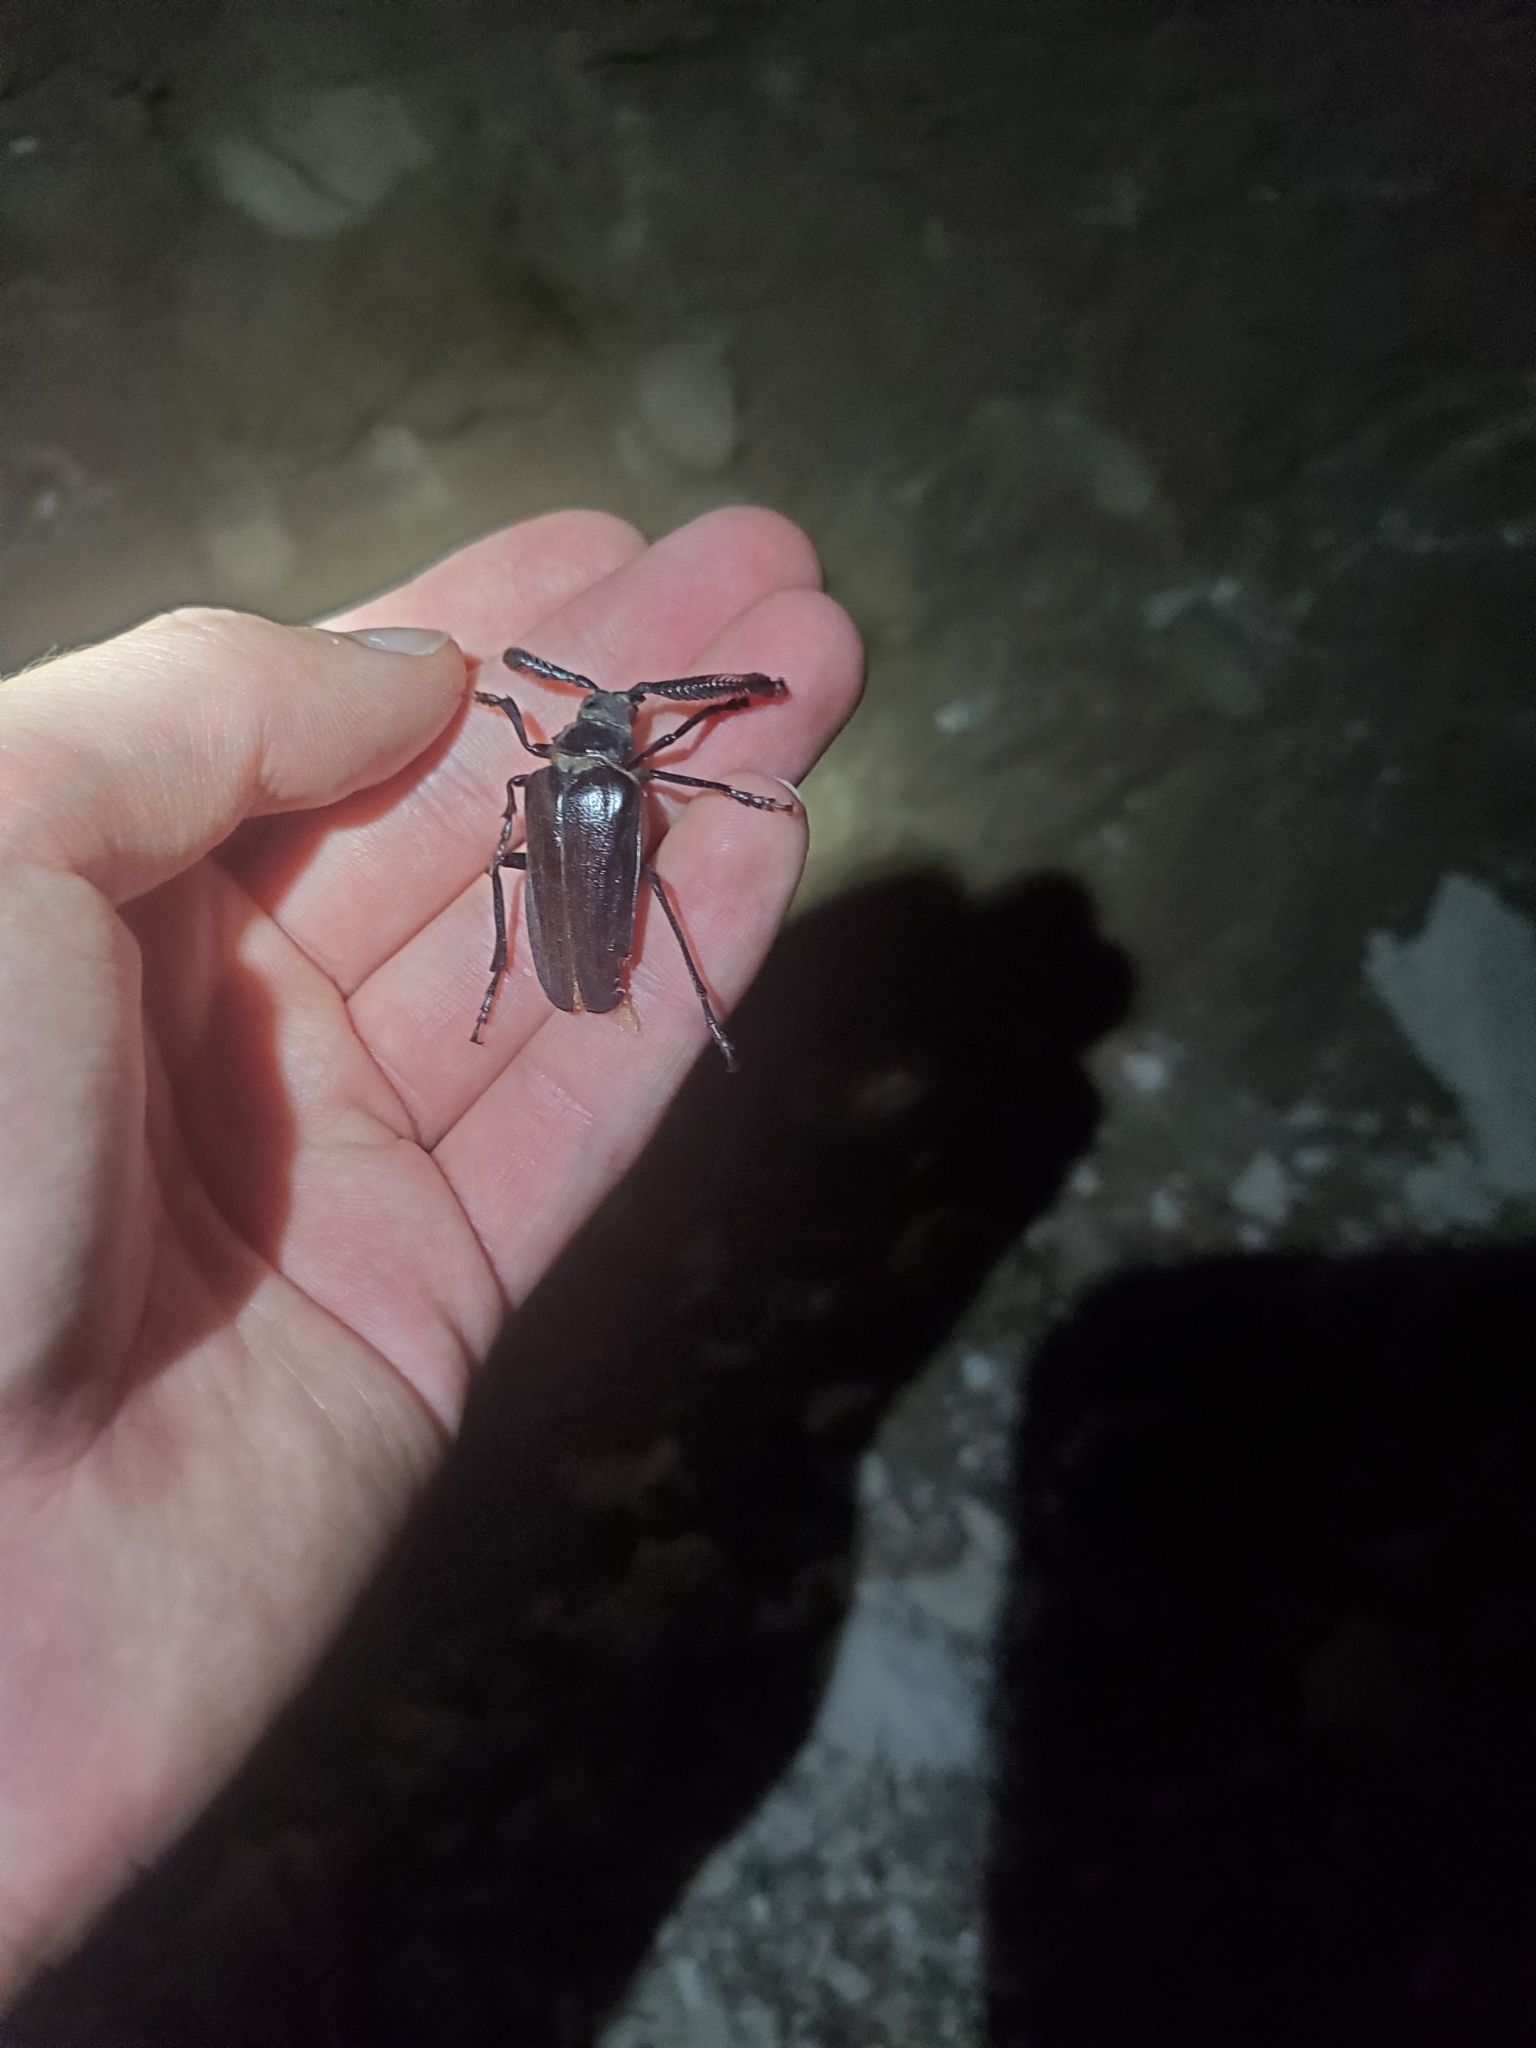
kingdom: Animalia
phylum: Arthropoda
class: Insecta
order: Coleoptera
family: Cerambycidae
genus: Prionus
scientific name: Prionus fissicornis
